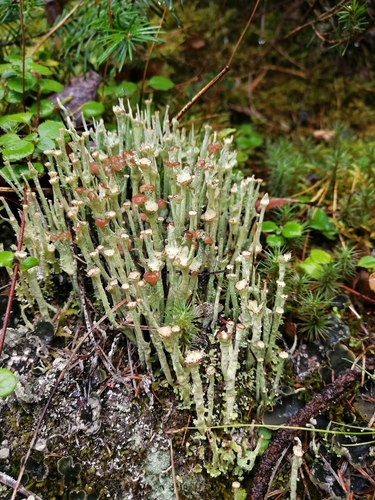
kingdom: Fungi
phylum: Ascomycota
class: Lecanoromycetes
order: Lecanorales
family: Cladoniaceae
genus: Cladonia
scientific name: Cladonia gracilis
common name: Smooth clad lichen
